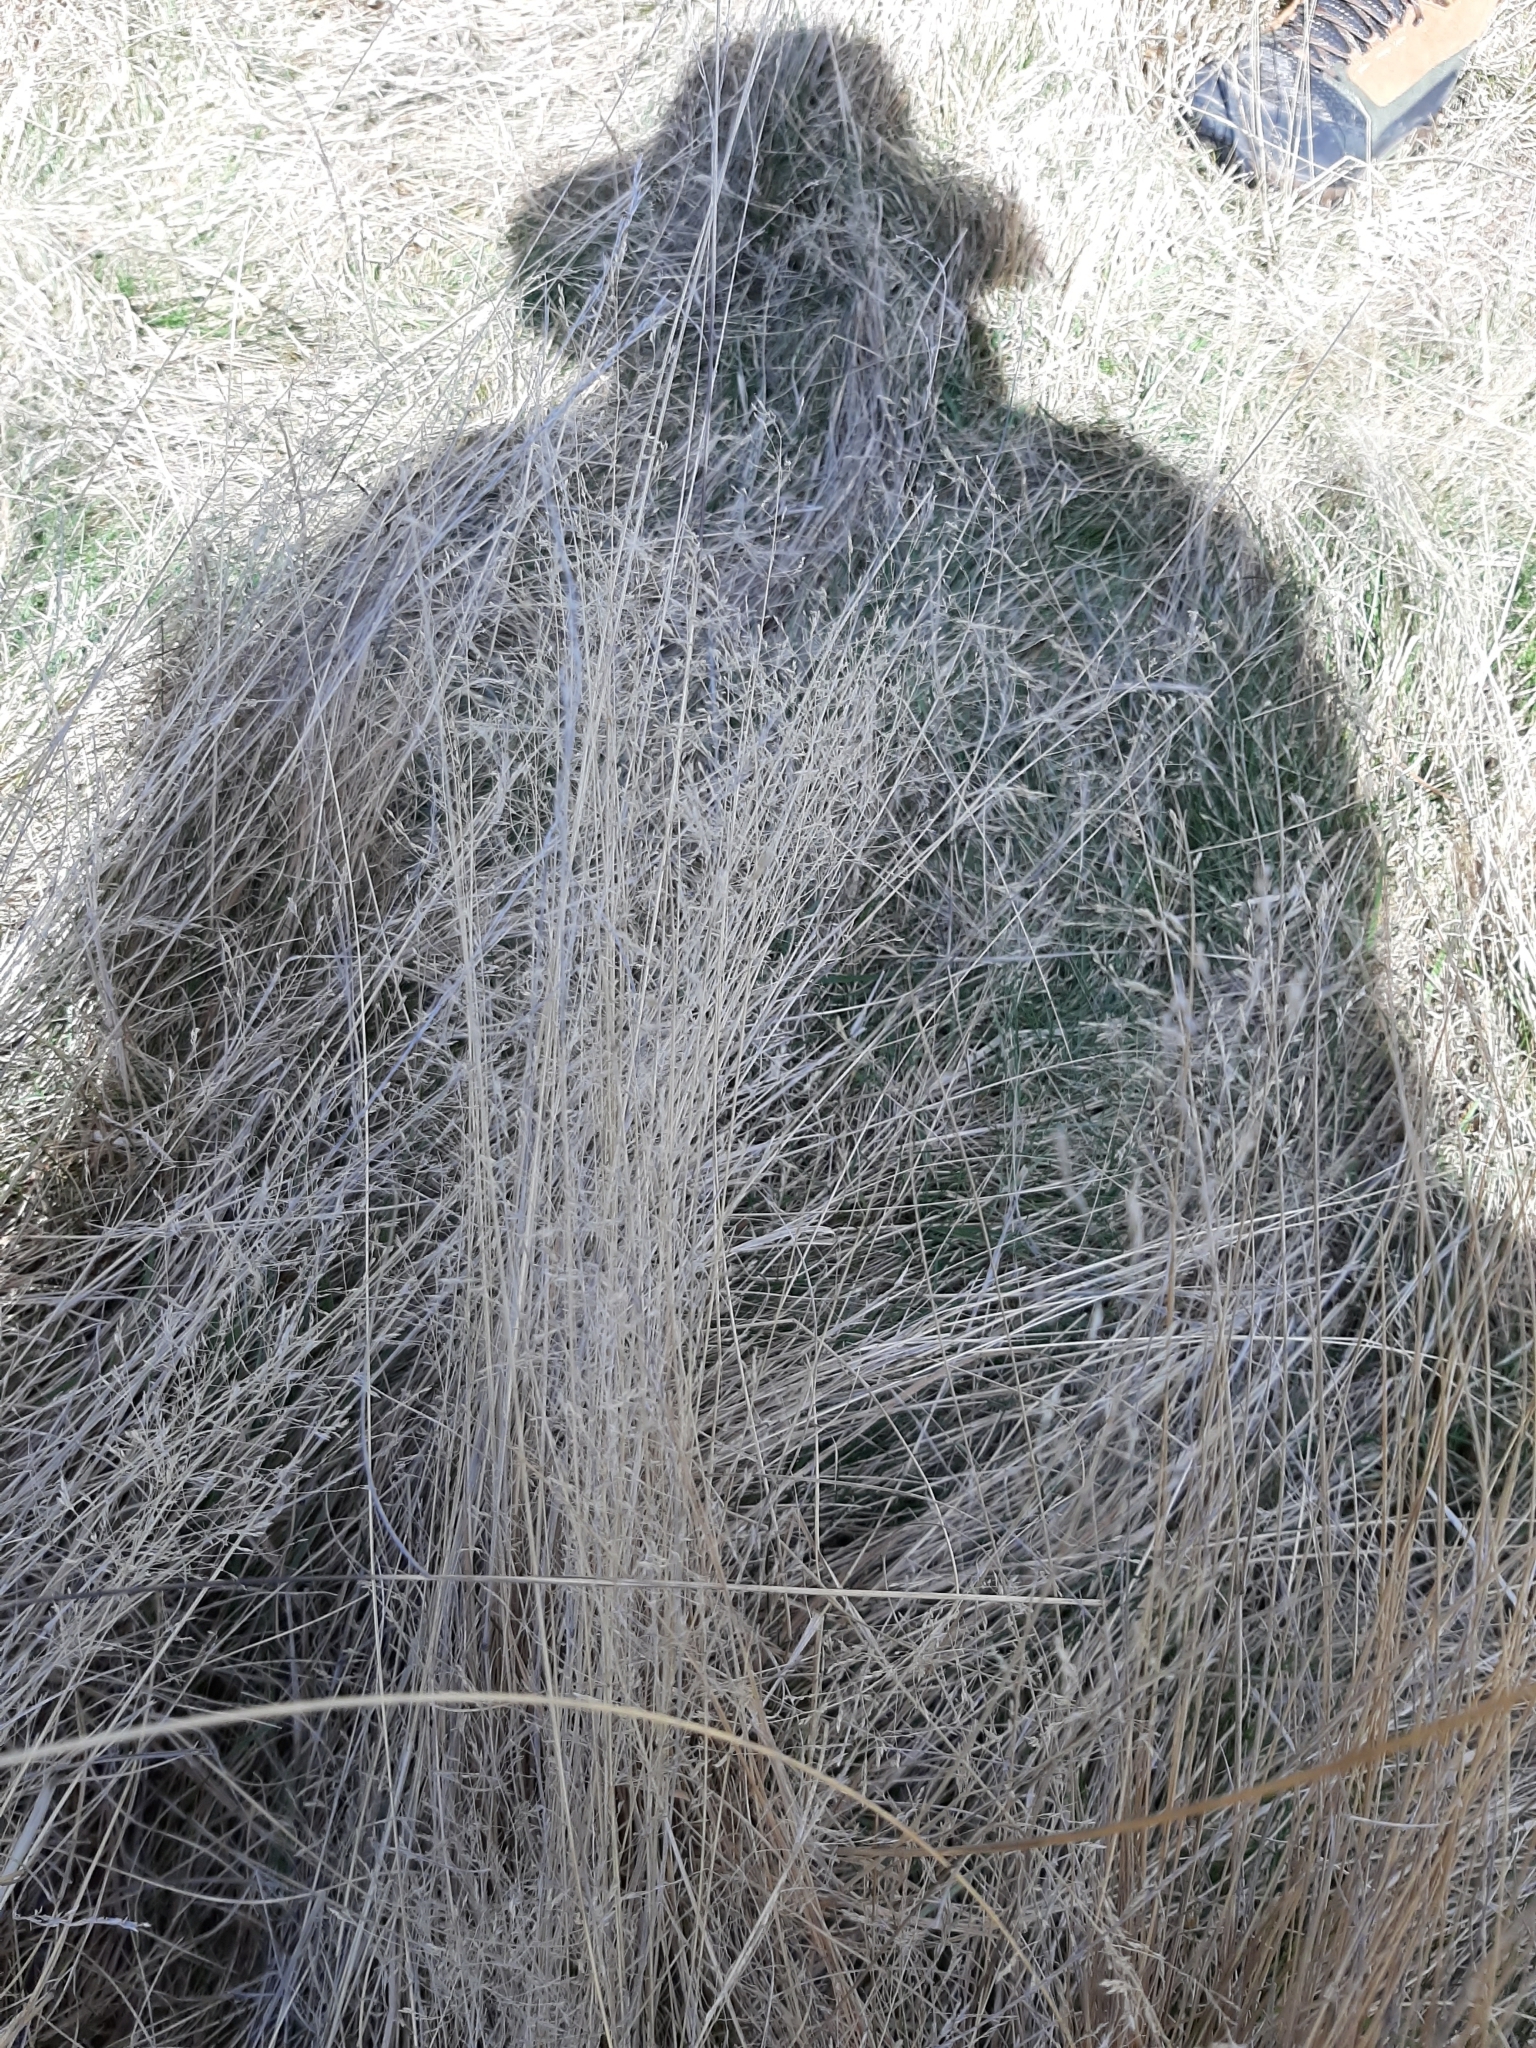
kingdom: Plantae
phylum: Tracheophyta
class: Liliopsida
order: Poales
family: Poaceae
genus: Agrostis
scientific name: Agrostis capillaris
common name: Colonial bentgrass
